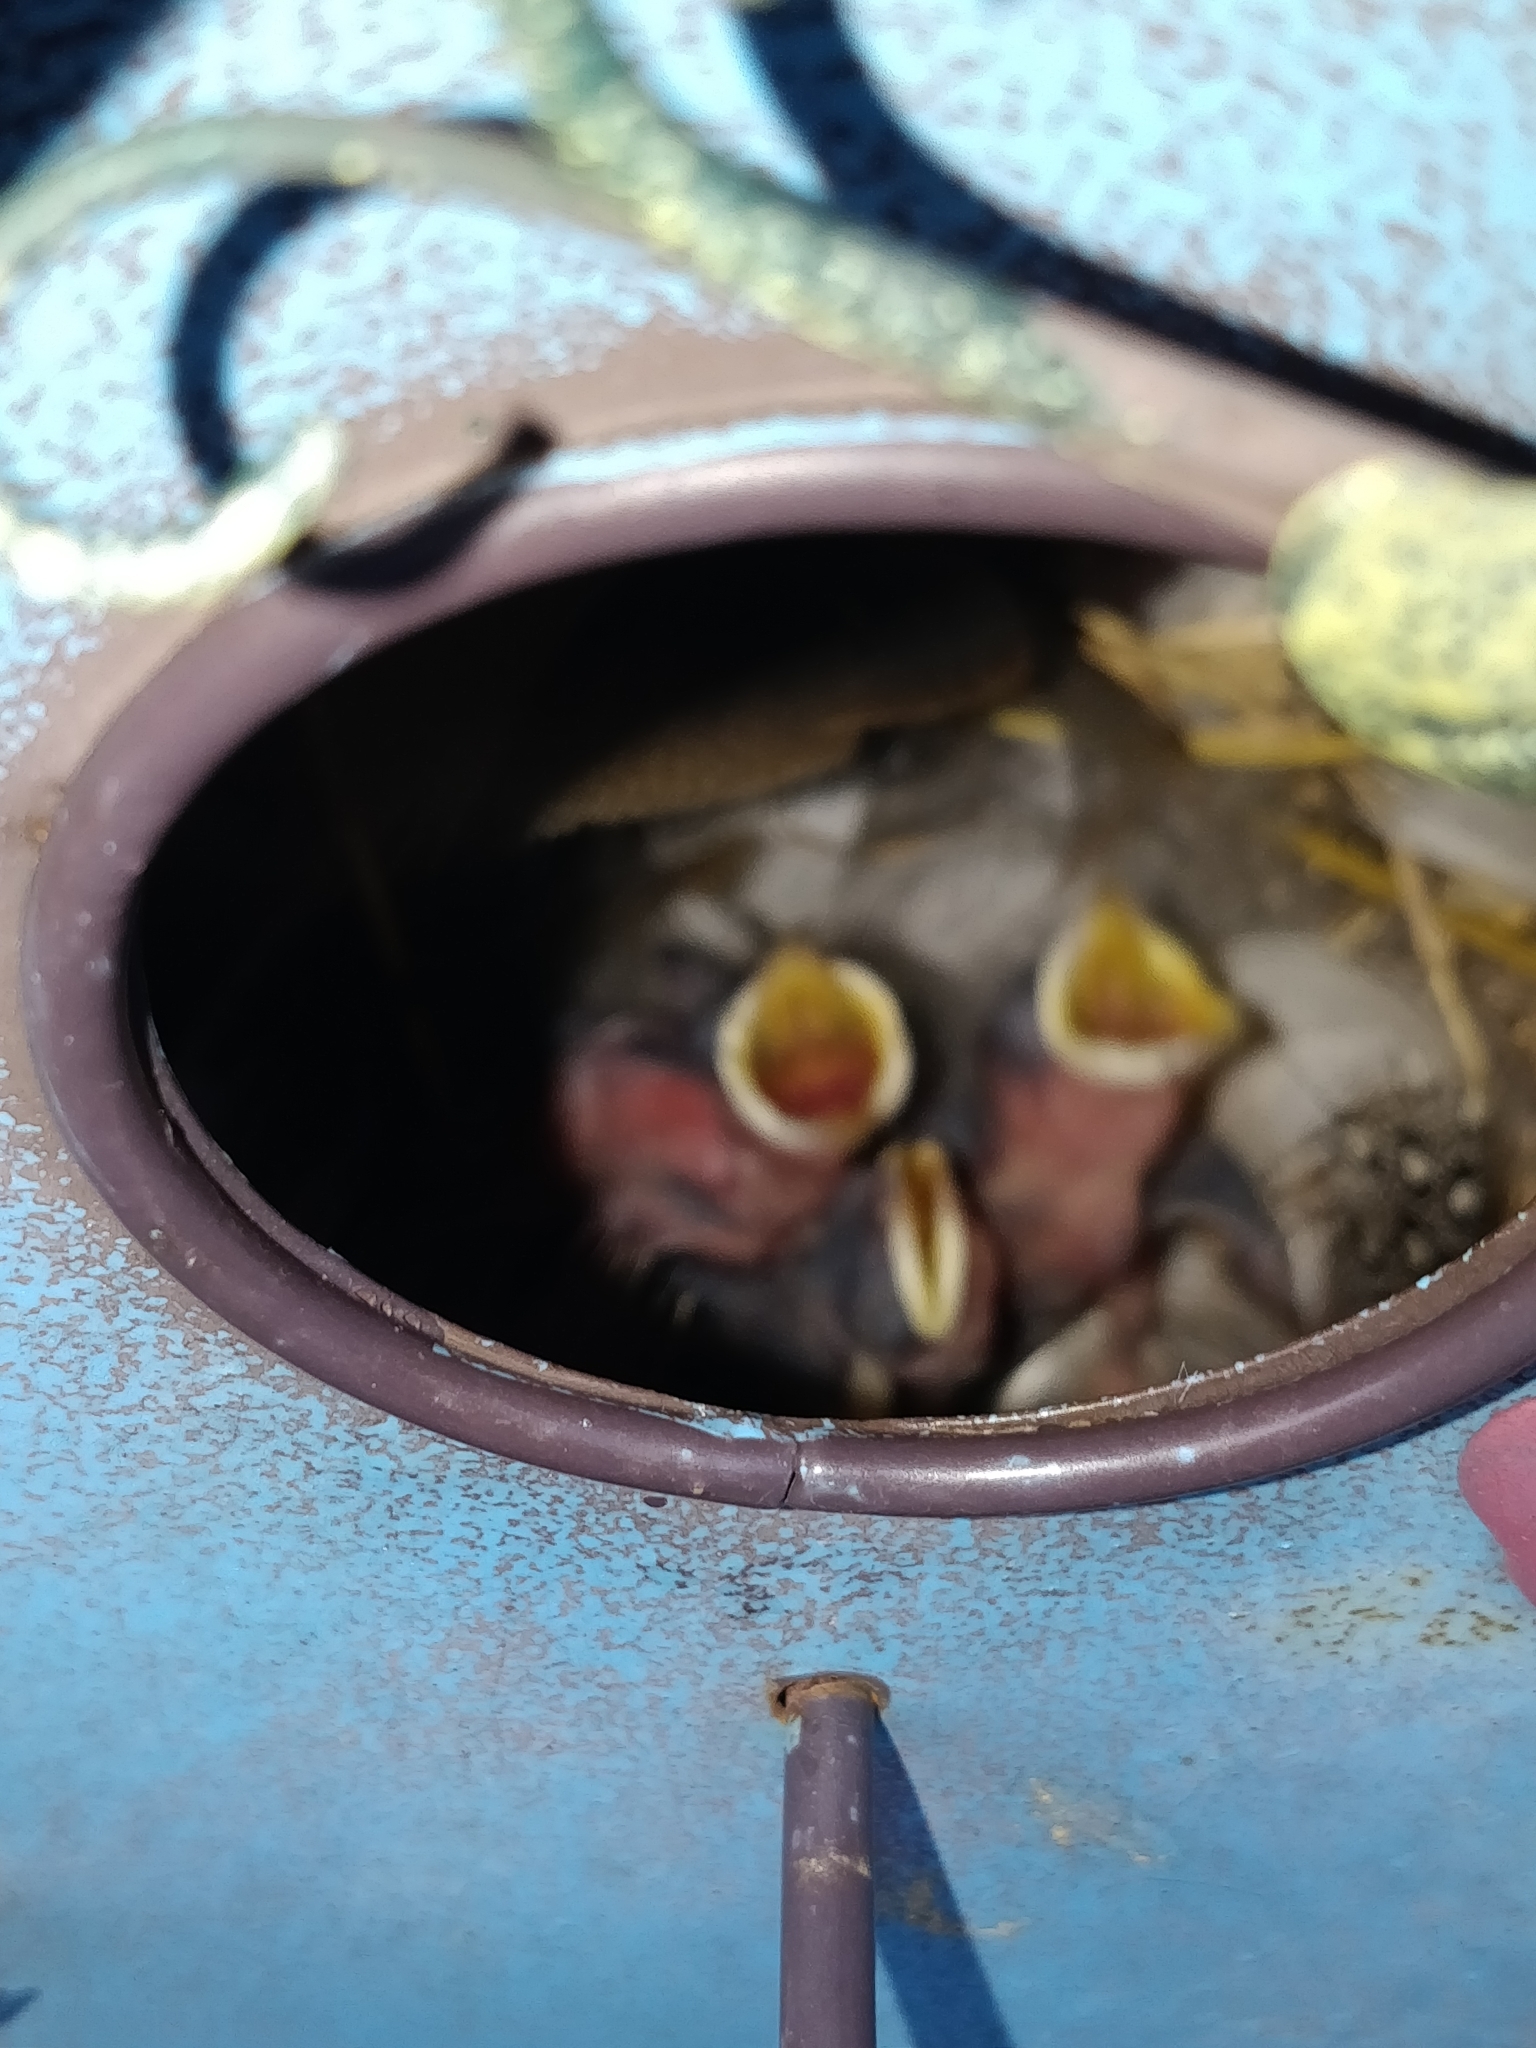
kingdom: Animalia
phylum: Chordata
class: Aves
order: Passeriformes
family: Hirundinidae
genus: Tachycineta
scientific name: Tachycineta bicolor
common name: Tree swallow
